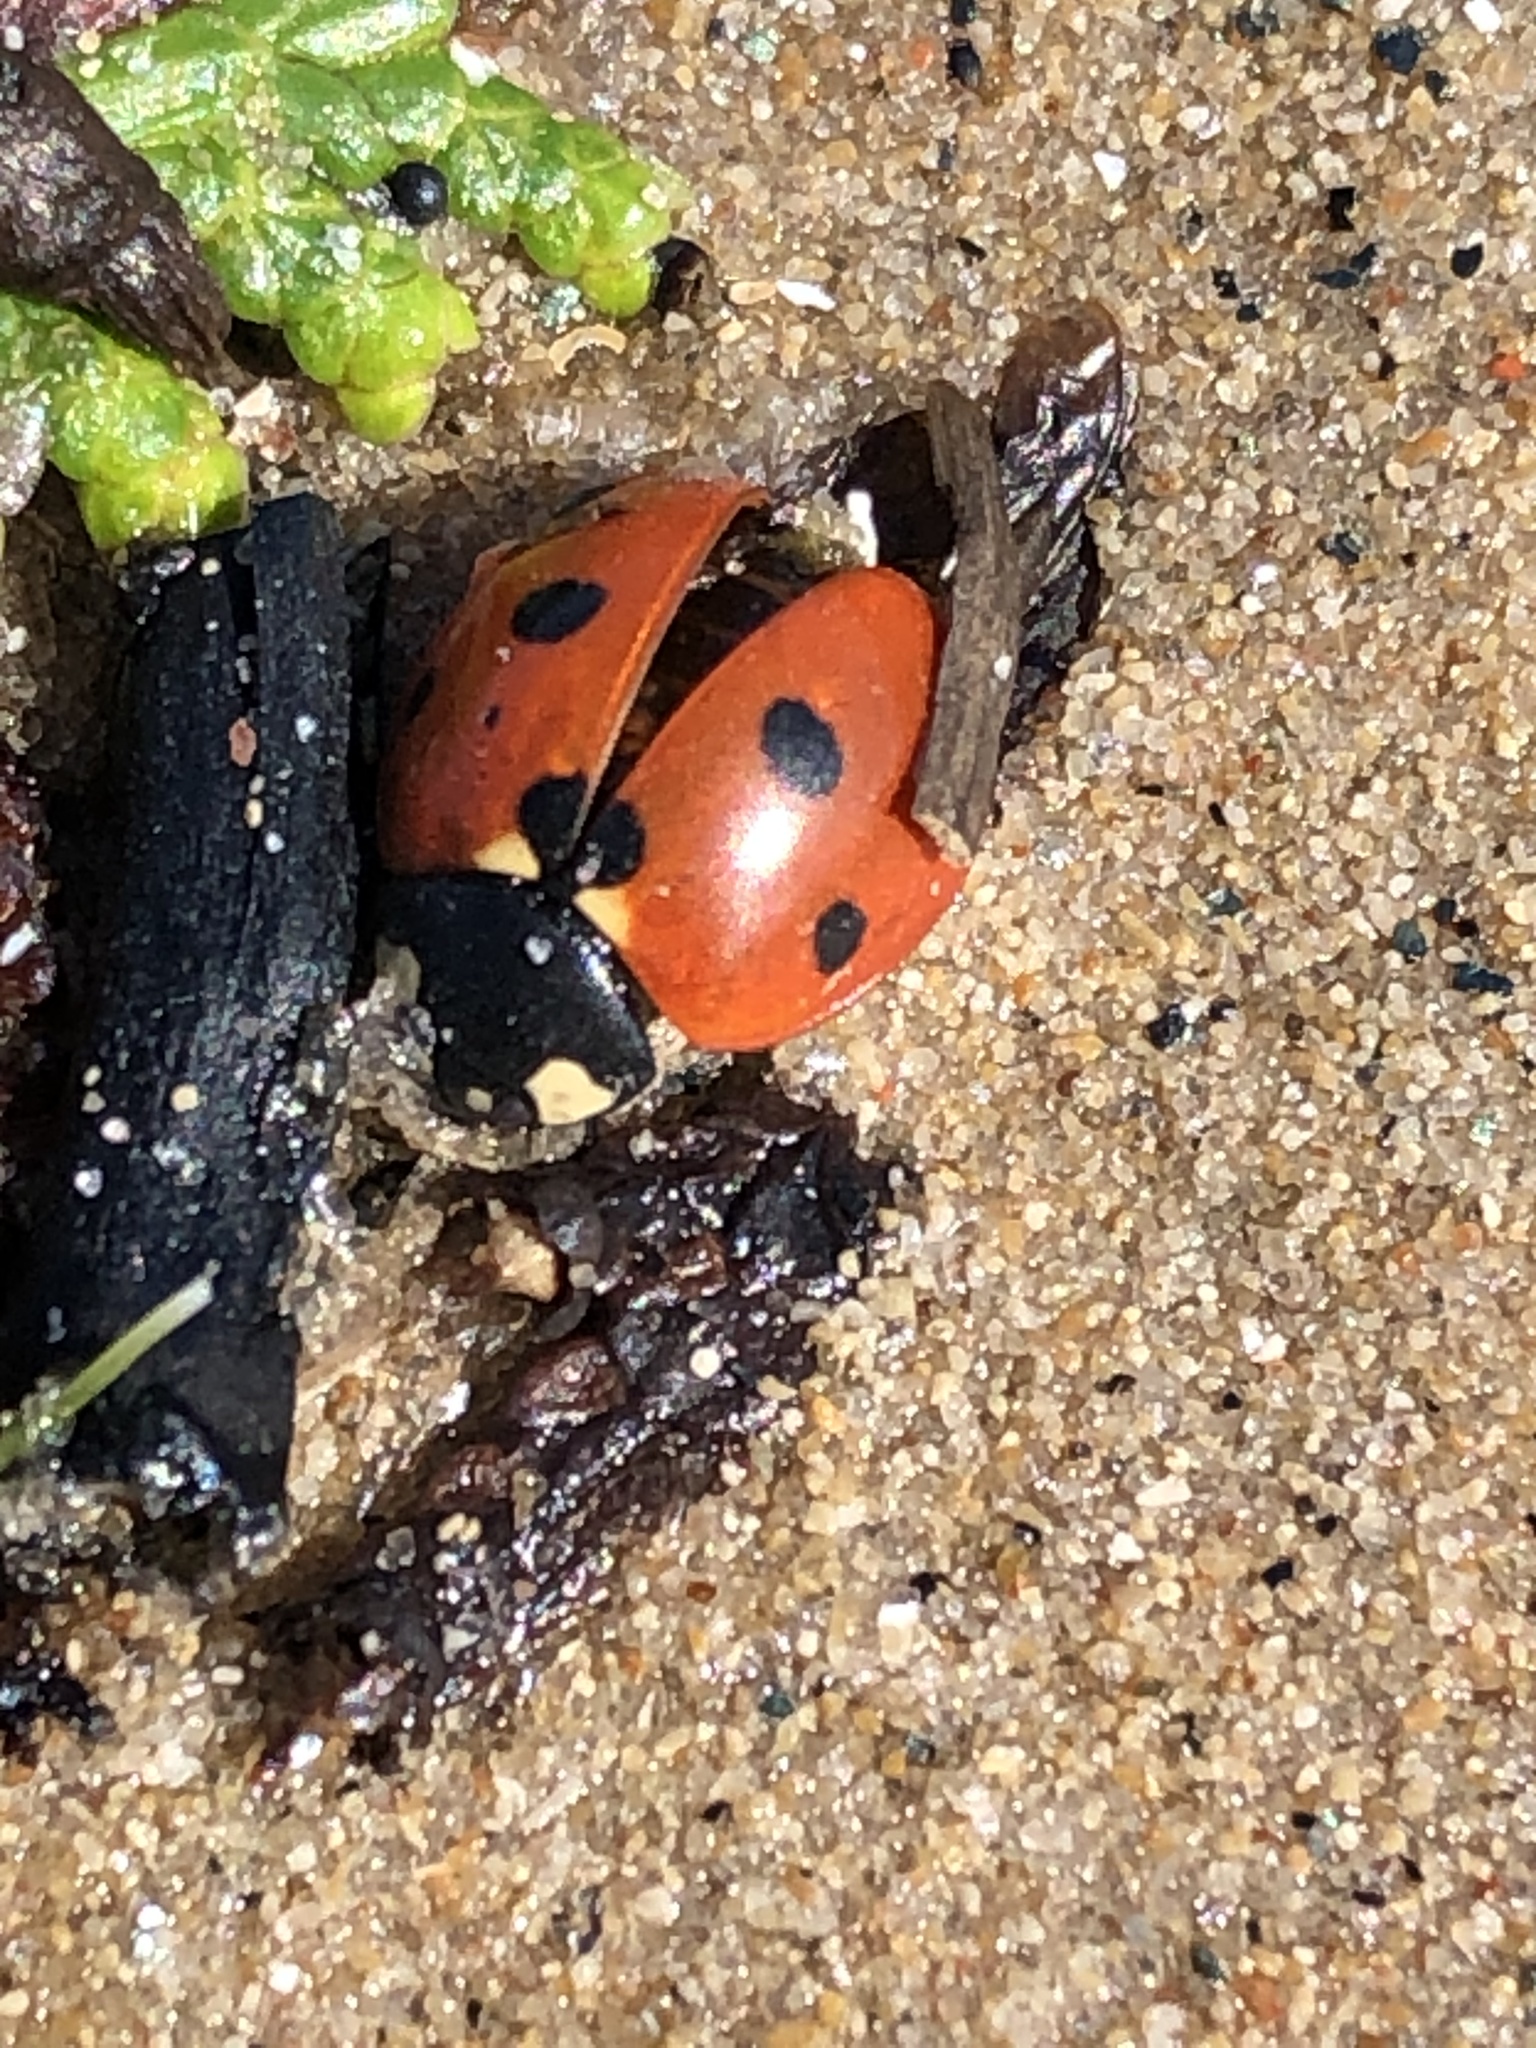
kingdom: Animalia
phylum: Arthropoda
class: Insecta
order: Coleoptera
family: Coccinellidae
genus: Coccinella
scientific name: Coccinella septempunctata
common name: Sevenspotted lady beetle
